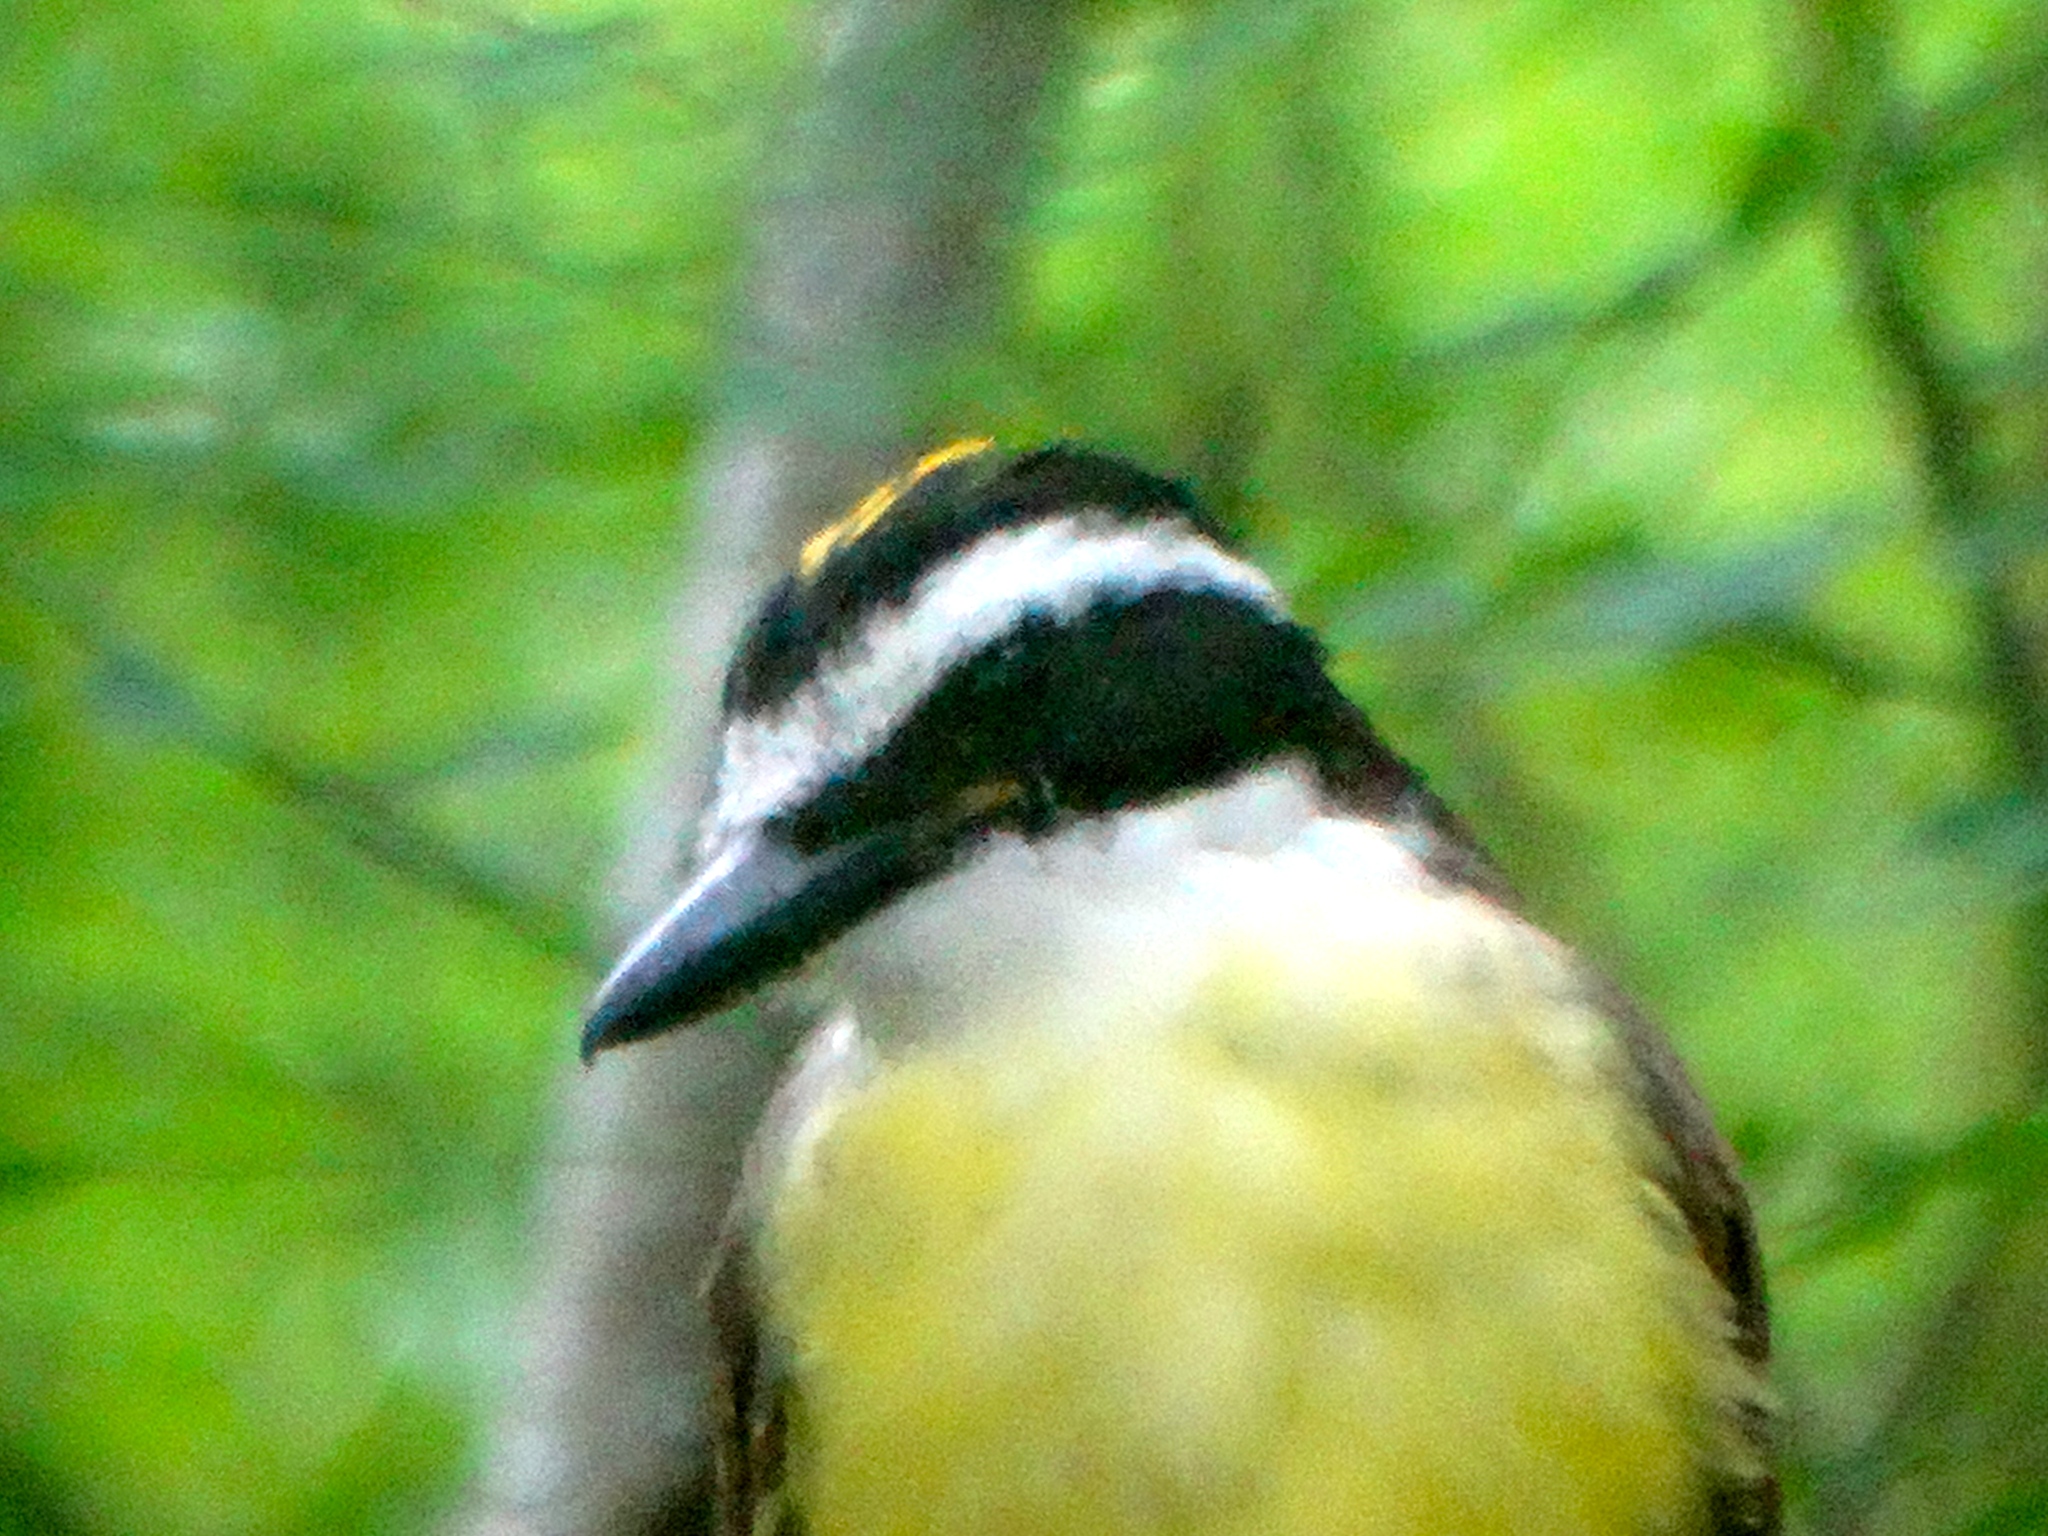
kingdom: Animalia
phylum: Chordata
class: Aves
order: Passeriformes
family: Tyrannidae
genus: Pitangus
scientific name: Pitangus sulphuratus
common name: Great kiskadee
